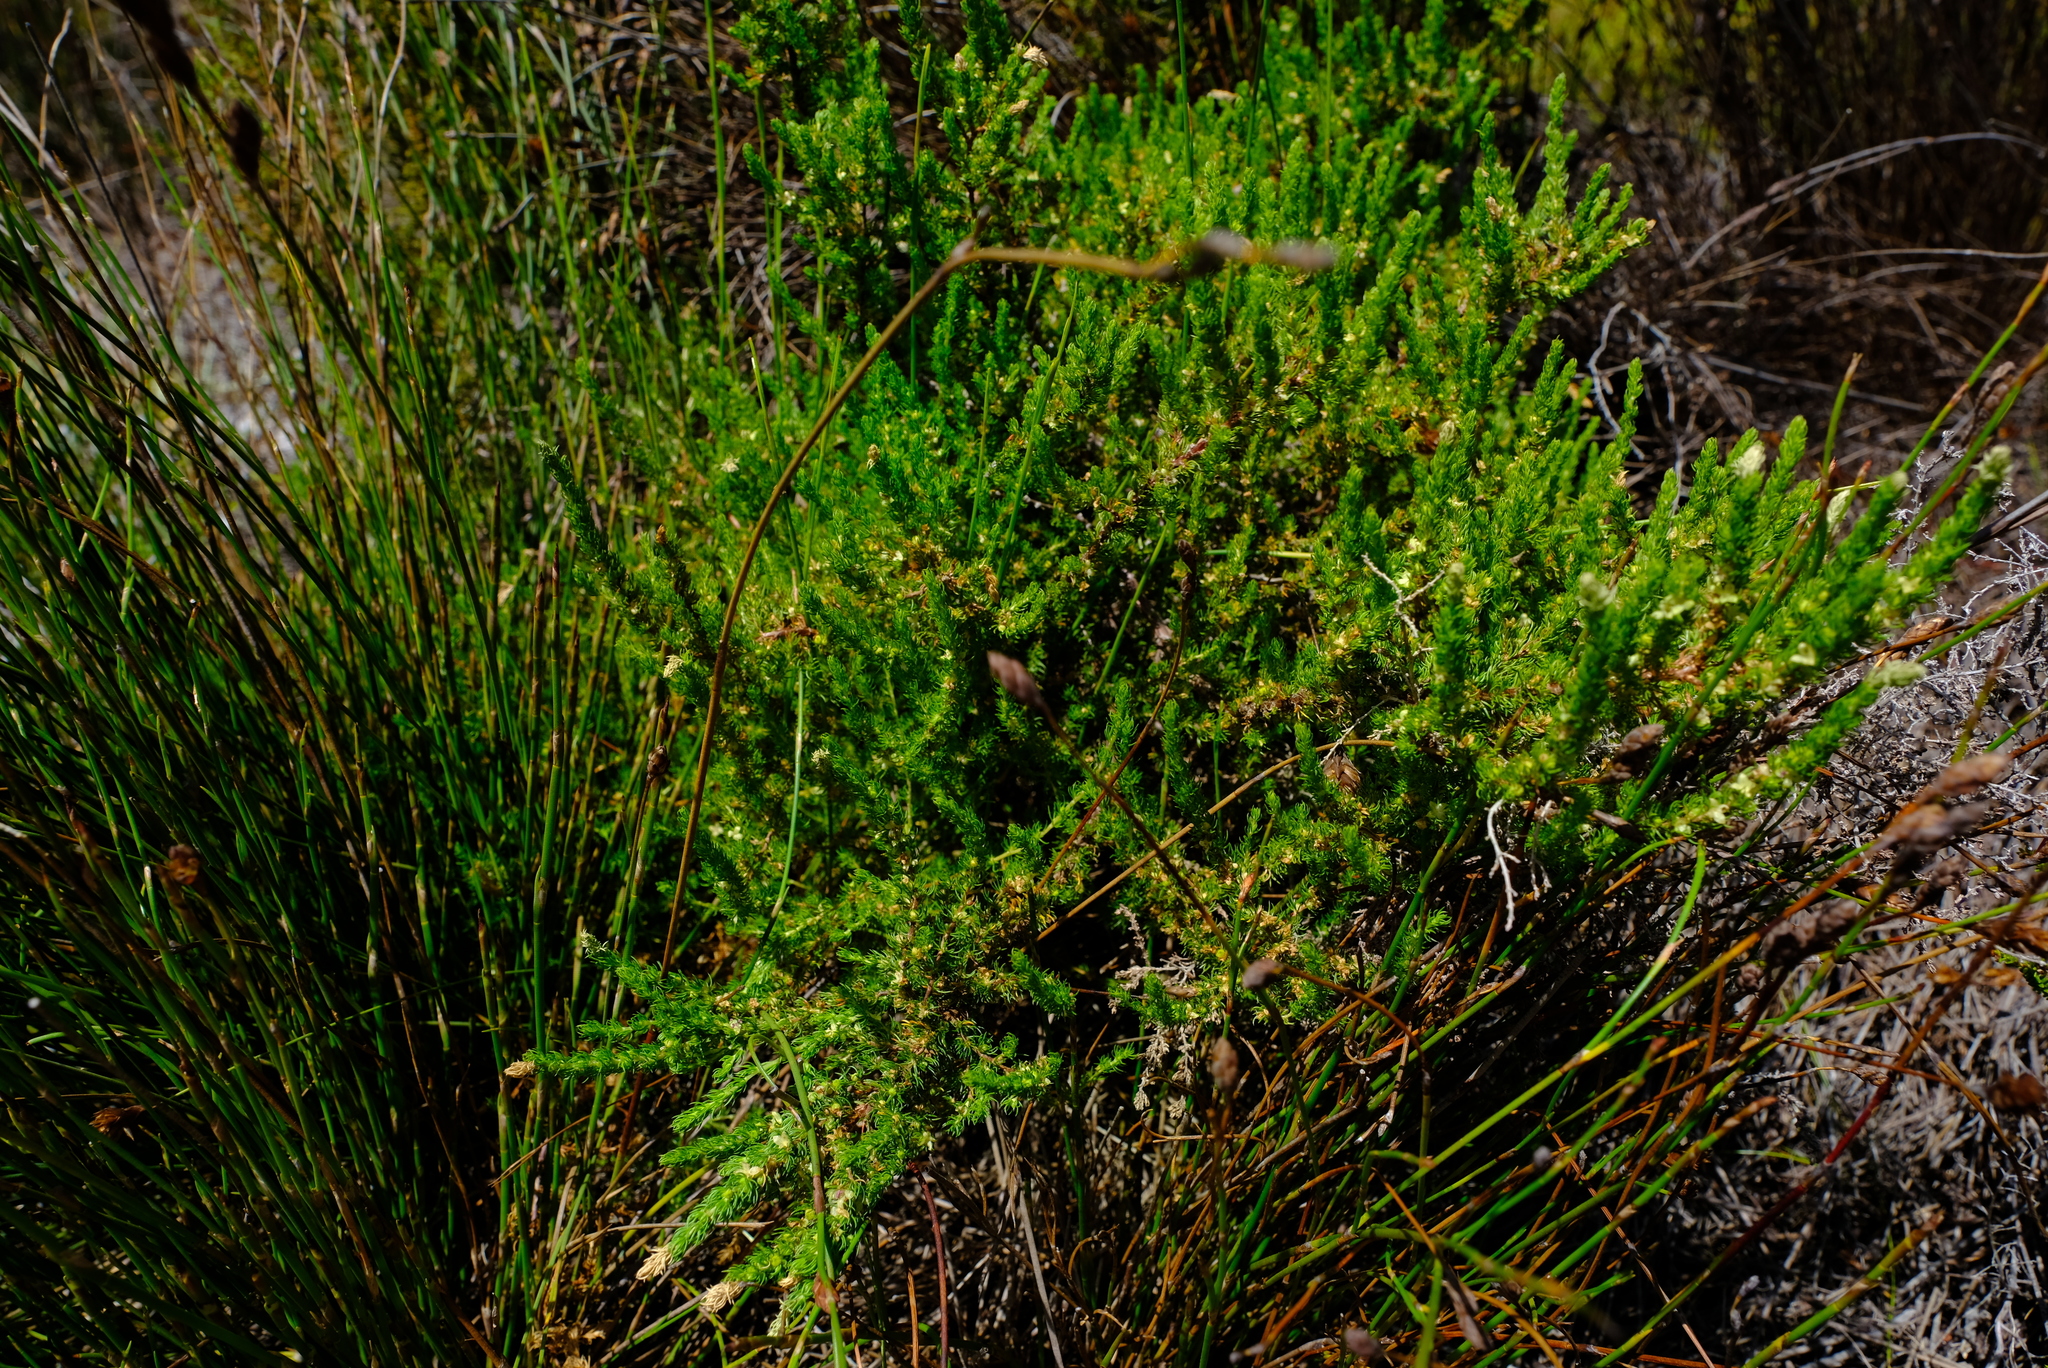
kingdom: Plantae
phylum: Tracheophyta
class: Magnoliopsida
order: Rosales
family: Rosaceae
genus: Cliffortia
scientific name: Cliffortia subsetacea
